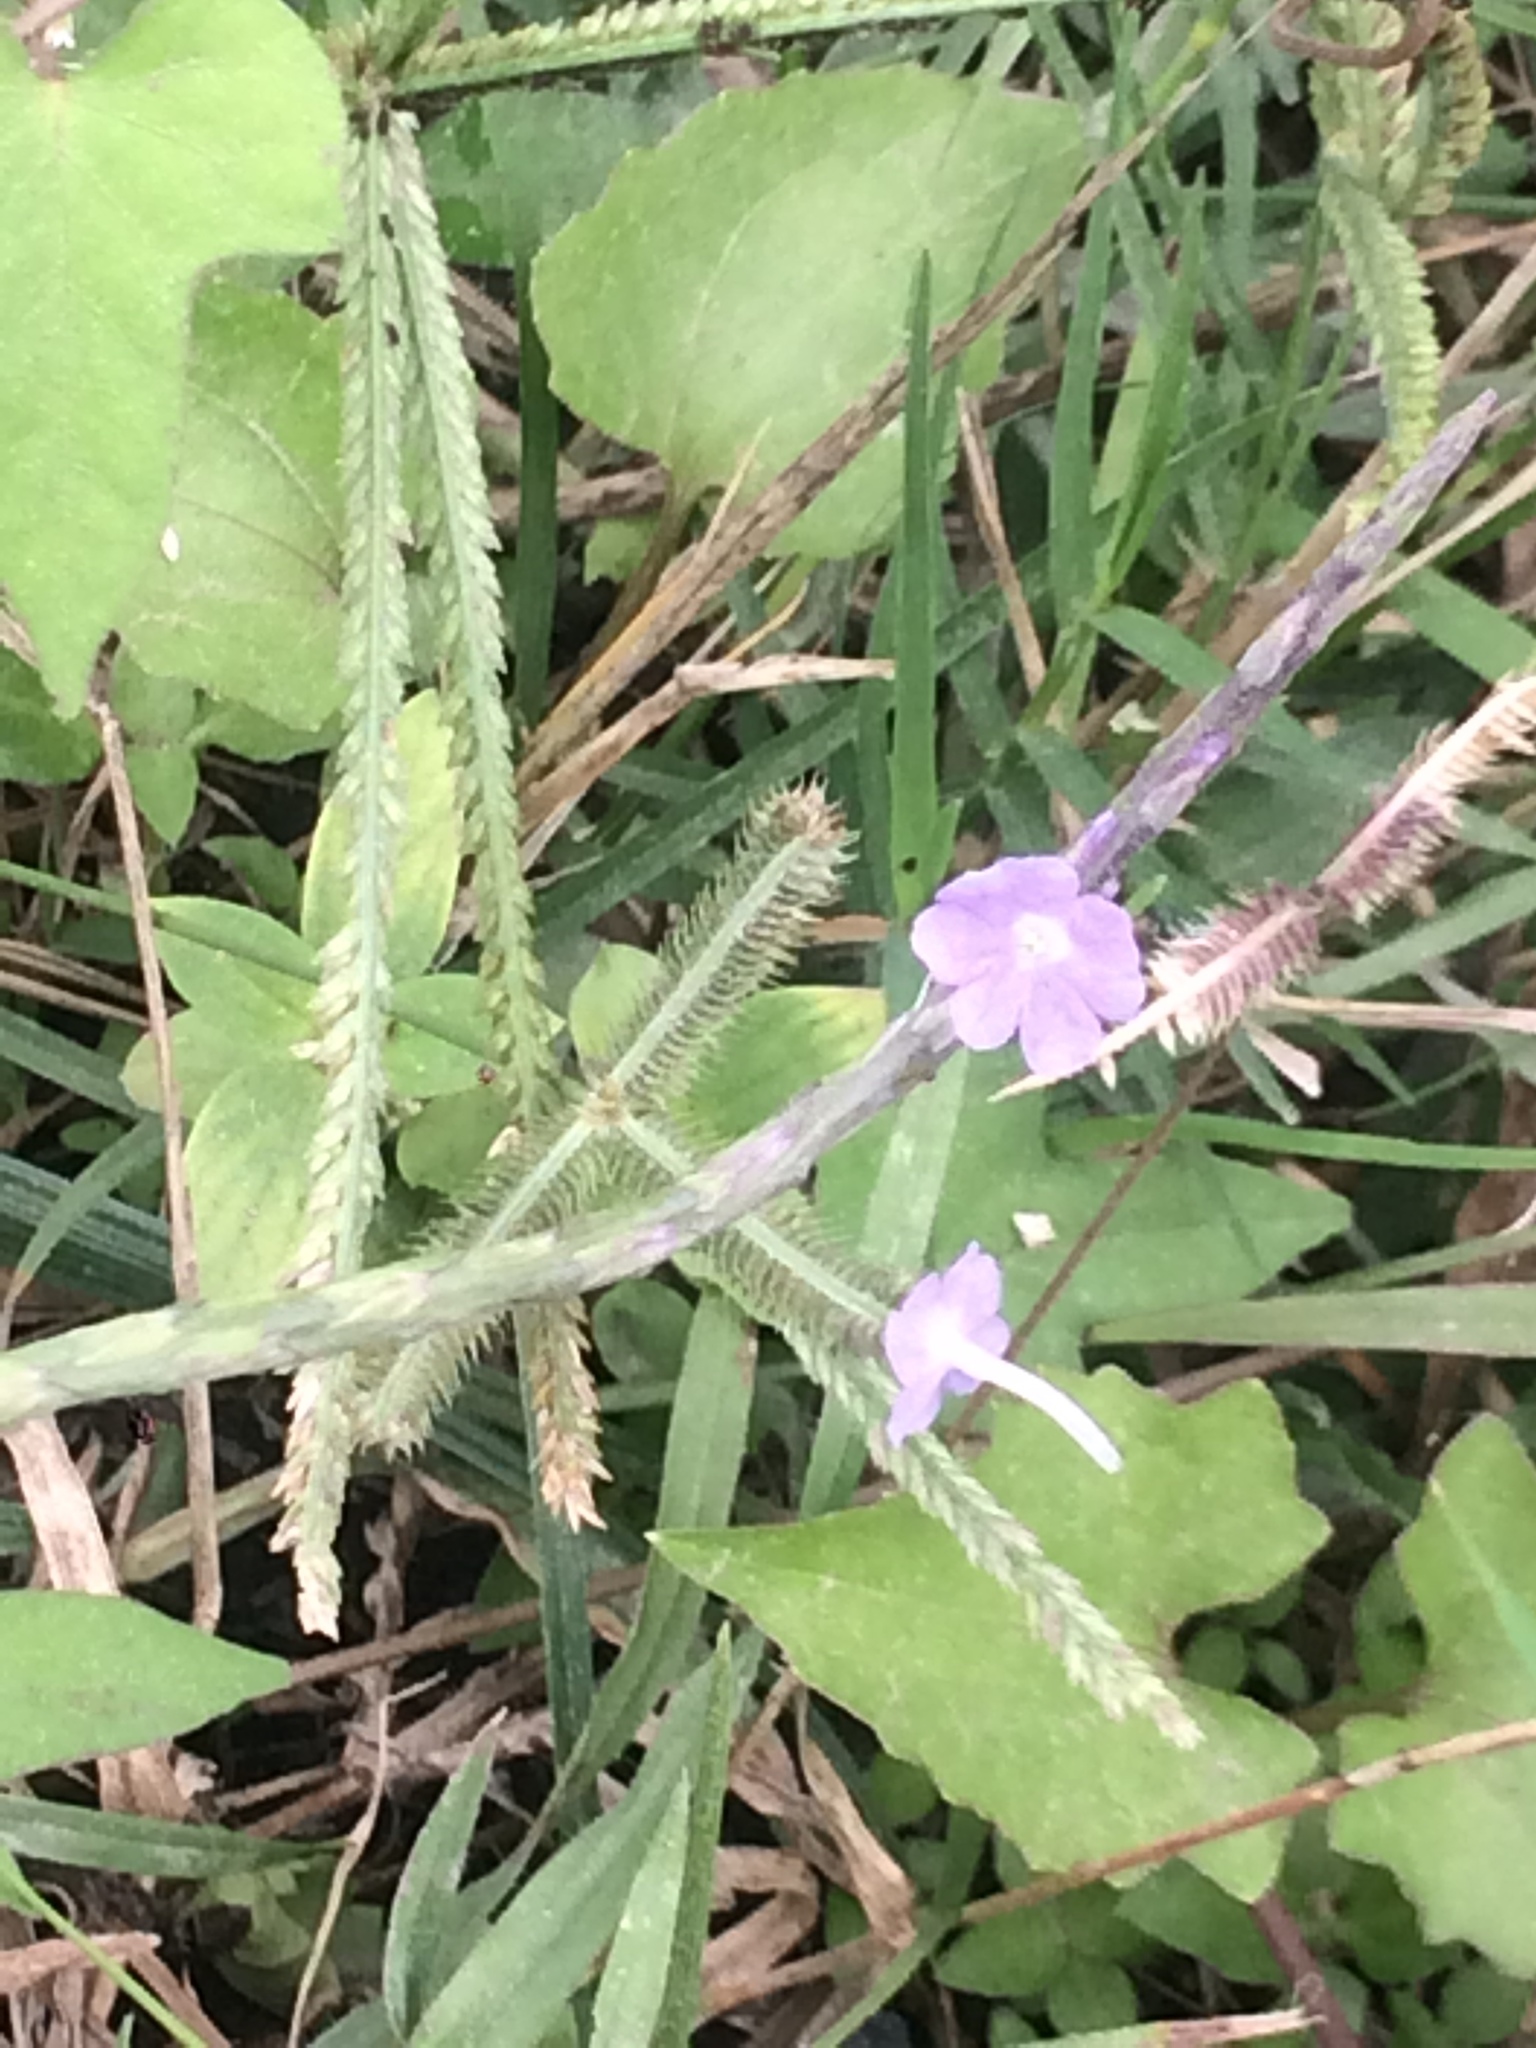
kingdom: Plantae
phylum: Tracheophyta
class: Magnoliopsida
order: Lamiales
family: Verbenaceae
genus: Stachytarpheta
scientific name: Stachytarpheta jamaicensis
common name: Light-blue snakeweed
